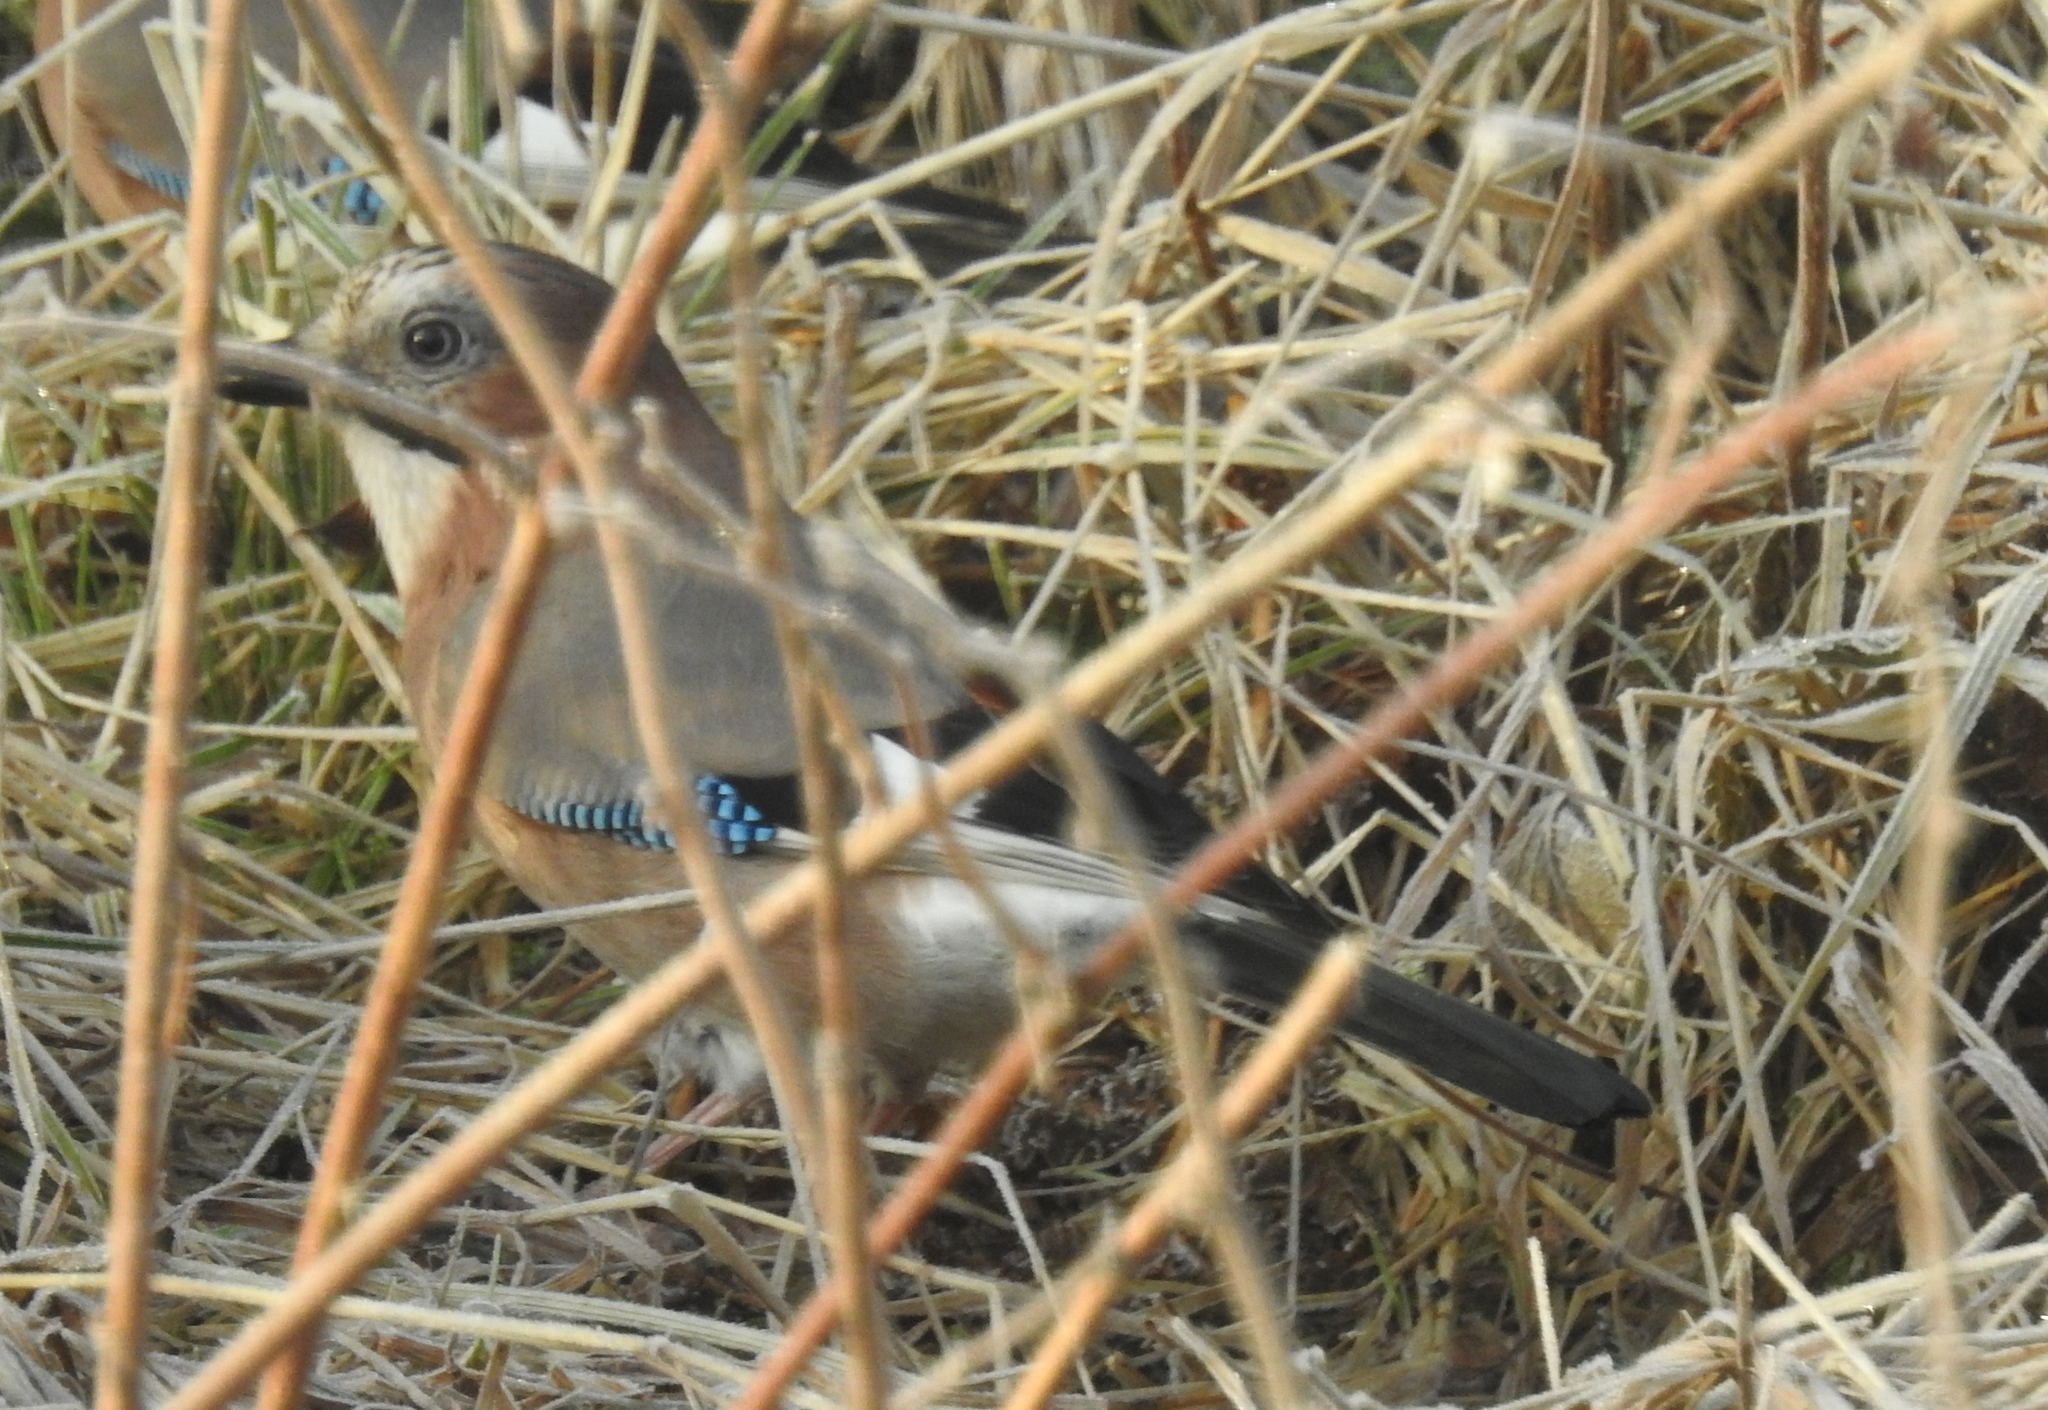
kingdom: Animalia
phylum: Chordata
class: Aves
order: Passeriformes
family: Corvidae
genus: Garrulus
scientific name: Garrulus glandarius
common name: Eurasian jay
